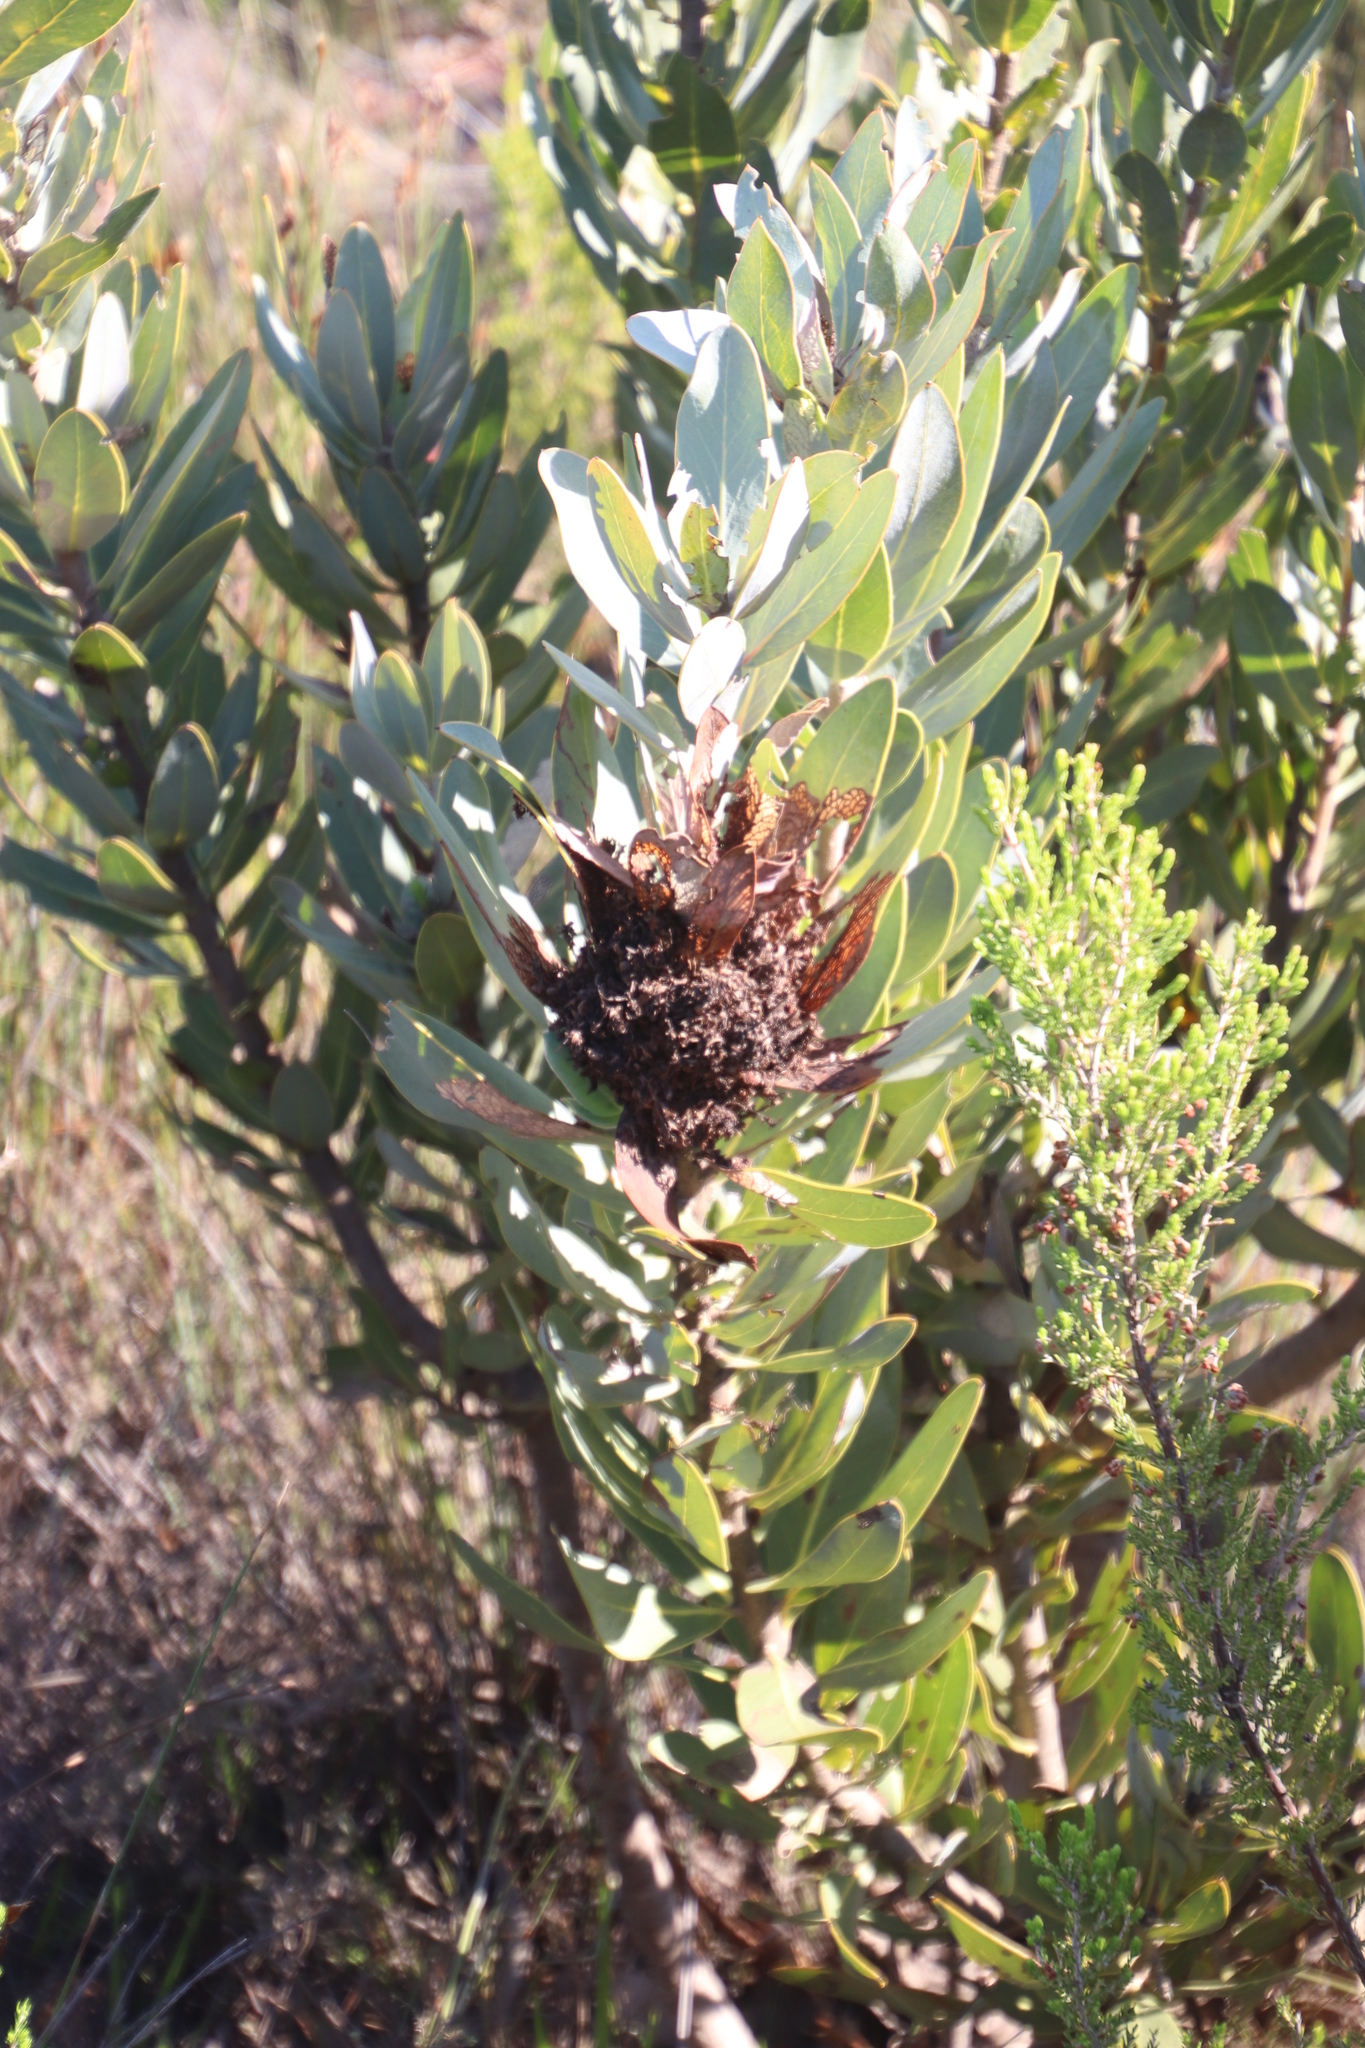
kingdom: Bacteria
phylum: Firmicutes
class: Bacilli
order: Acholeplasmatales
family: Acholeplasmataceae
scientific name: Acholeplasmataceae
